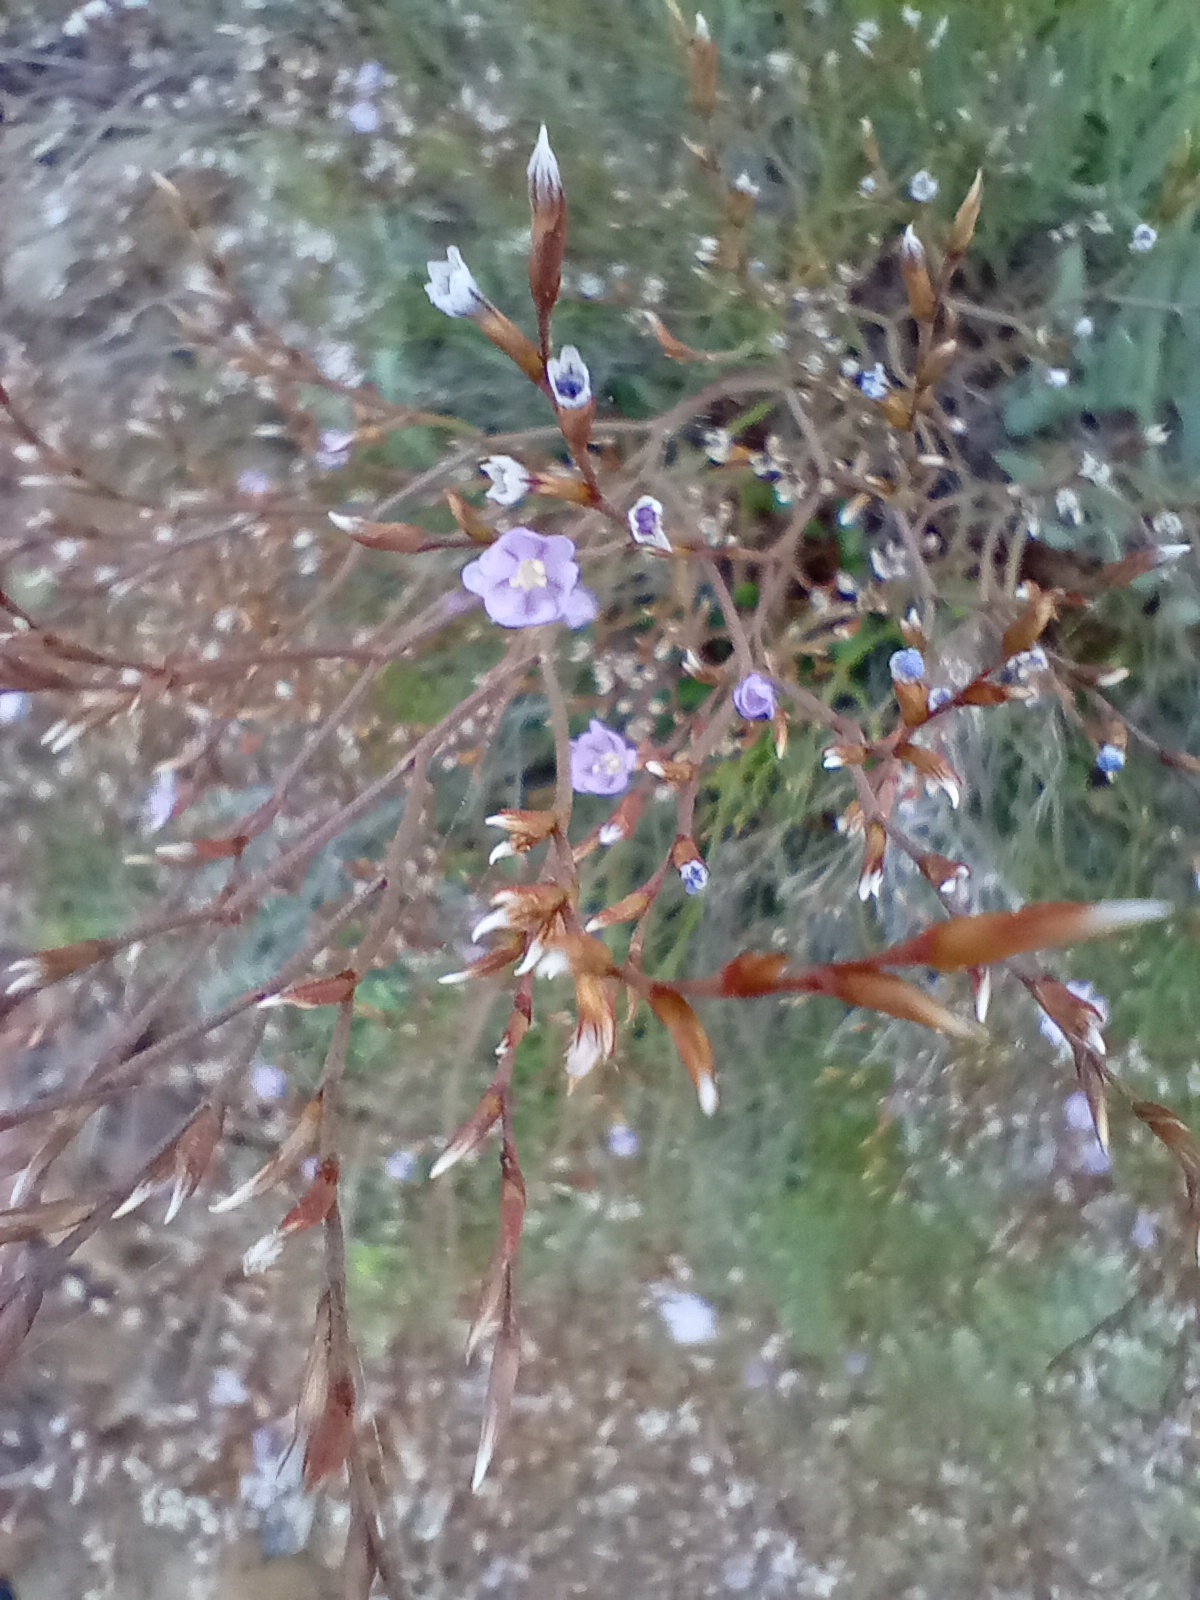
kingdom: Plantae
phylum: Tracheophyta
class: Magnoliopsida
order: Caryophyllales
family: Plumbaginaceae
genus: Limonium
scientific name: Limonium multiforme
